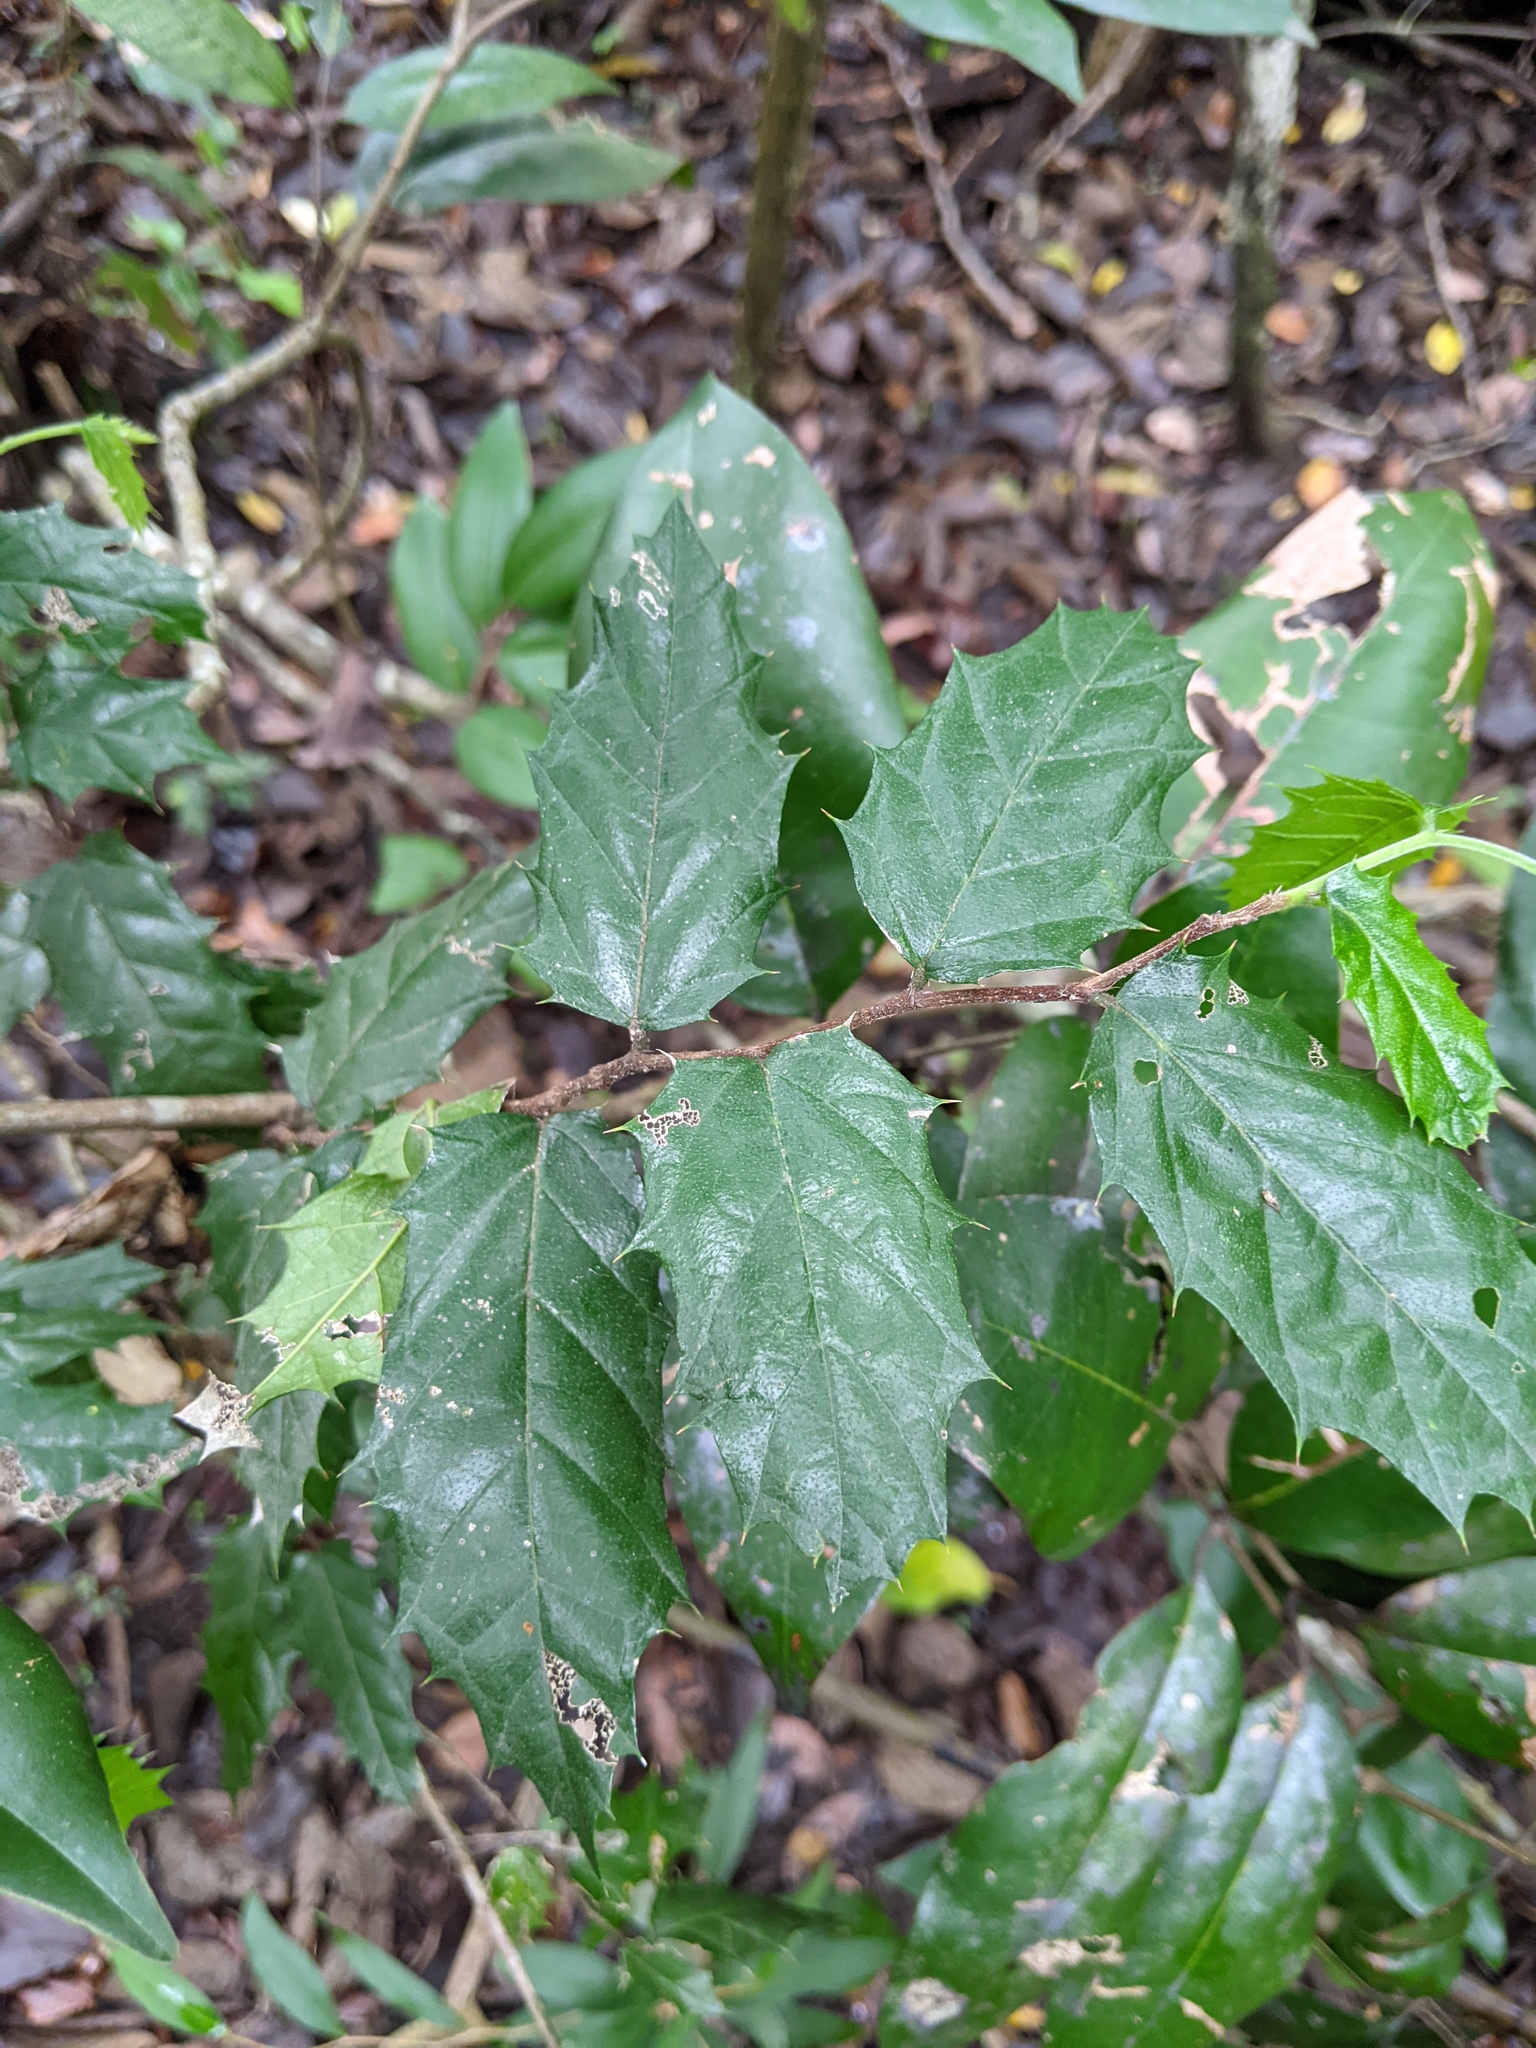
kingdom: Plantae
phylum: Tracheophyta
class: Magnoliopsida
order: Rosales
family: Cannabaceae
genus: Aphananthe
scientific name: Aphananthe philippinensis
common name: Wild holly
